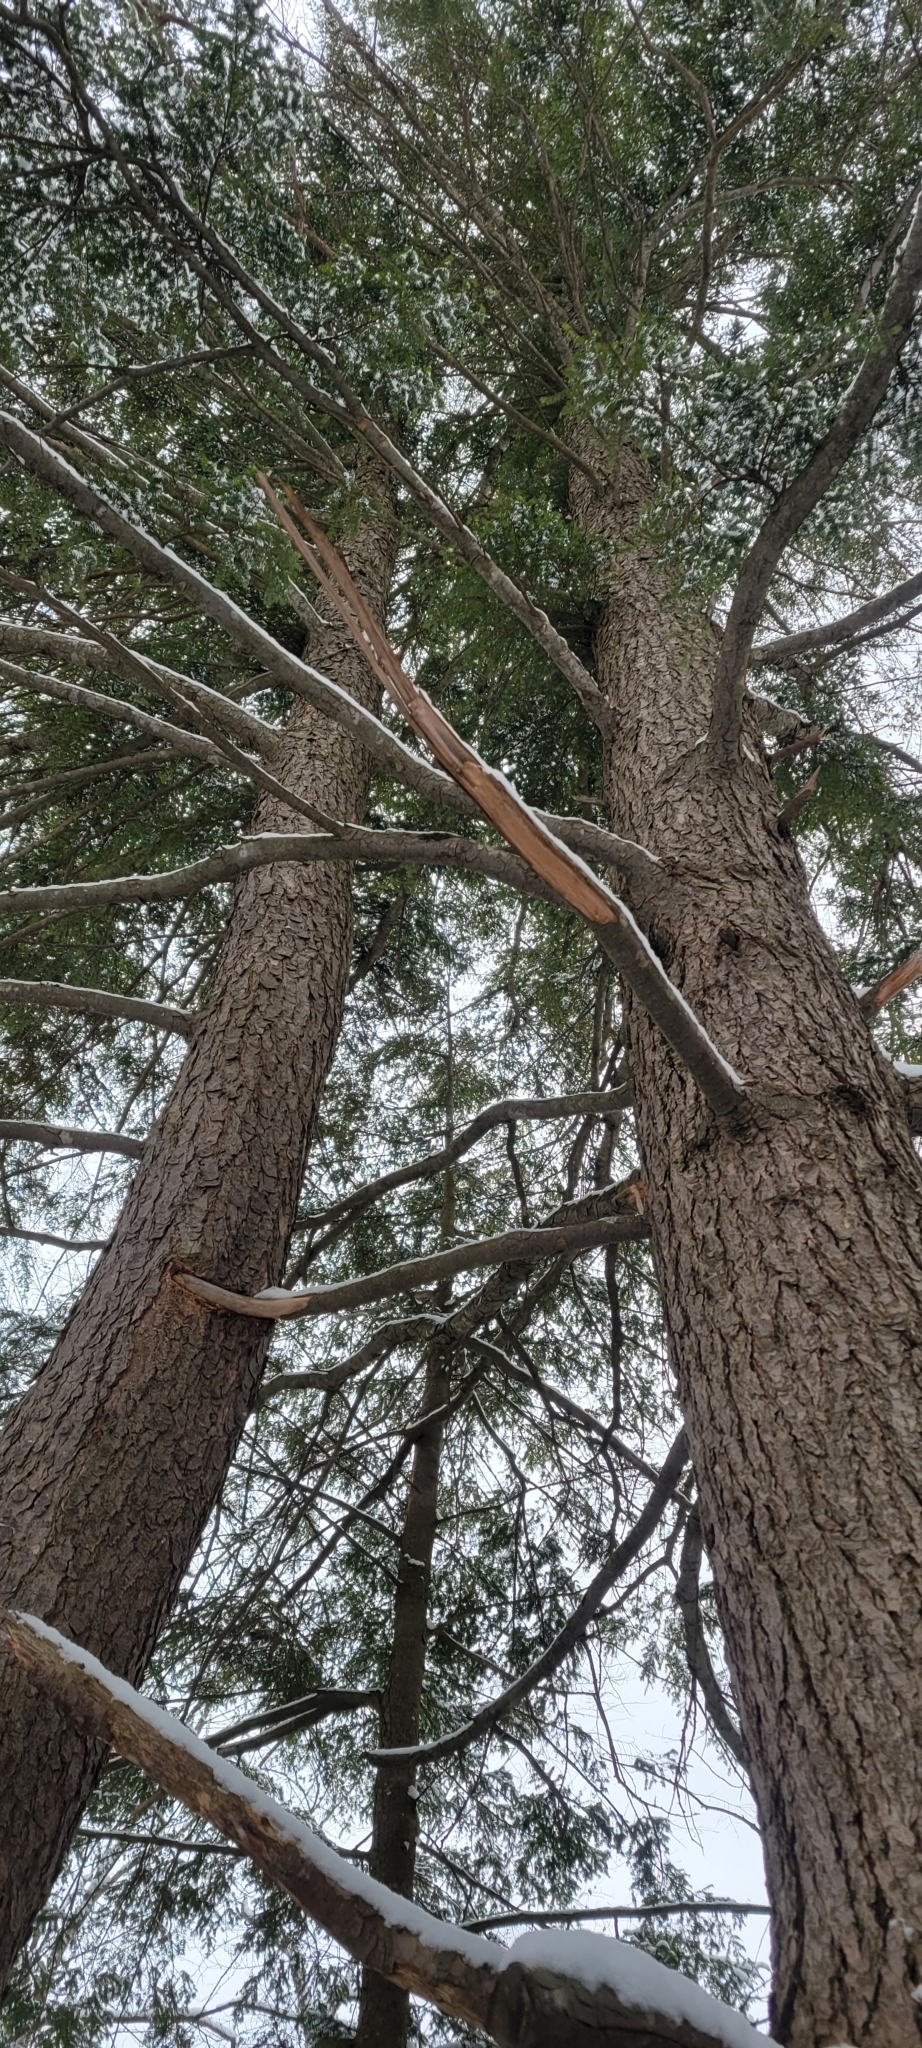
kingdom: Plantae
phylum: Tracheophyta
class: Pinopsida
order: Pinales
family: Pinaceae
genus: Tsuga
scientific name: Tsuga canadensis
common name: Eastern hemlock
